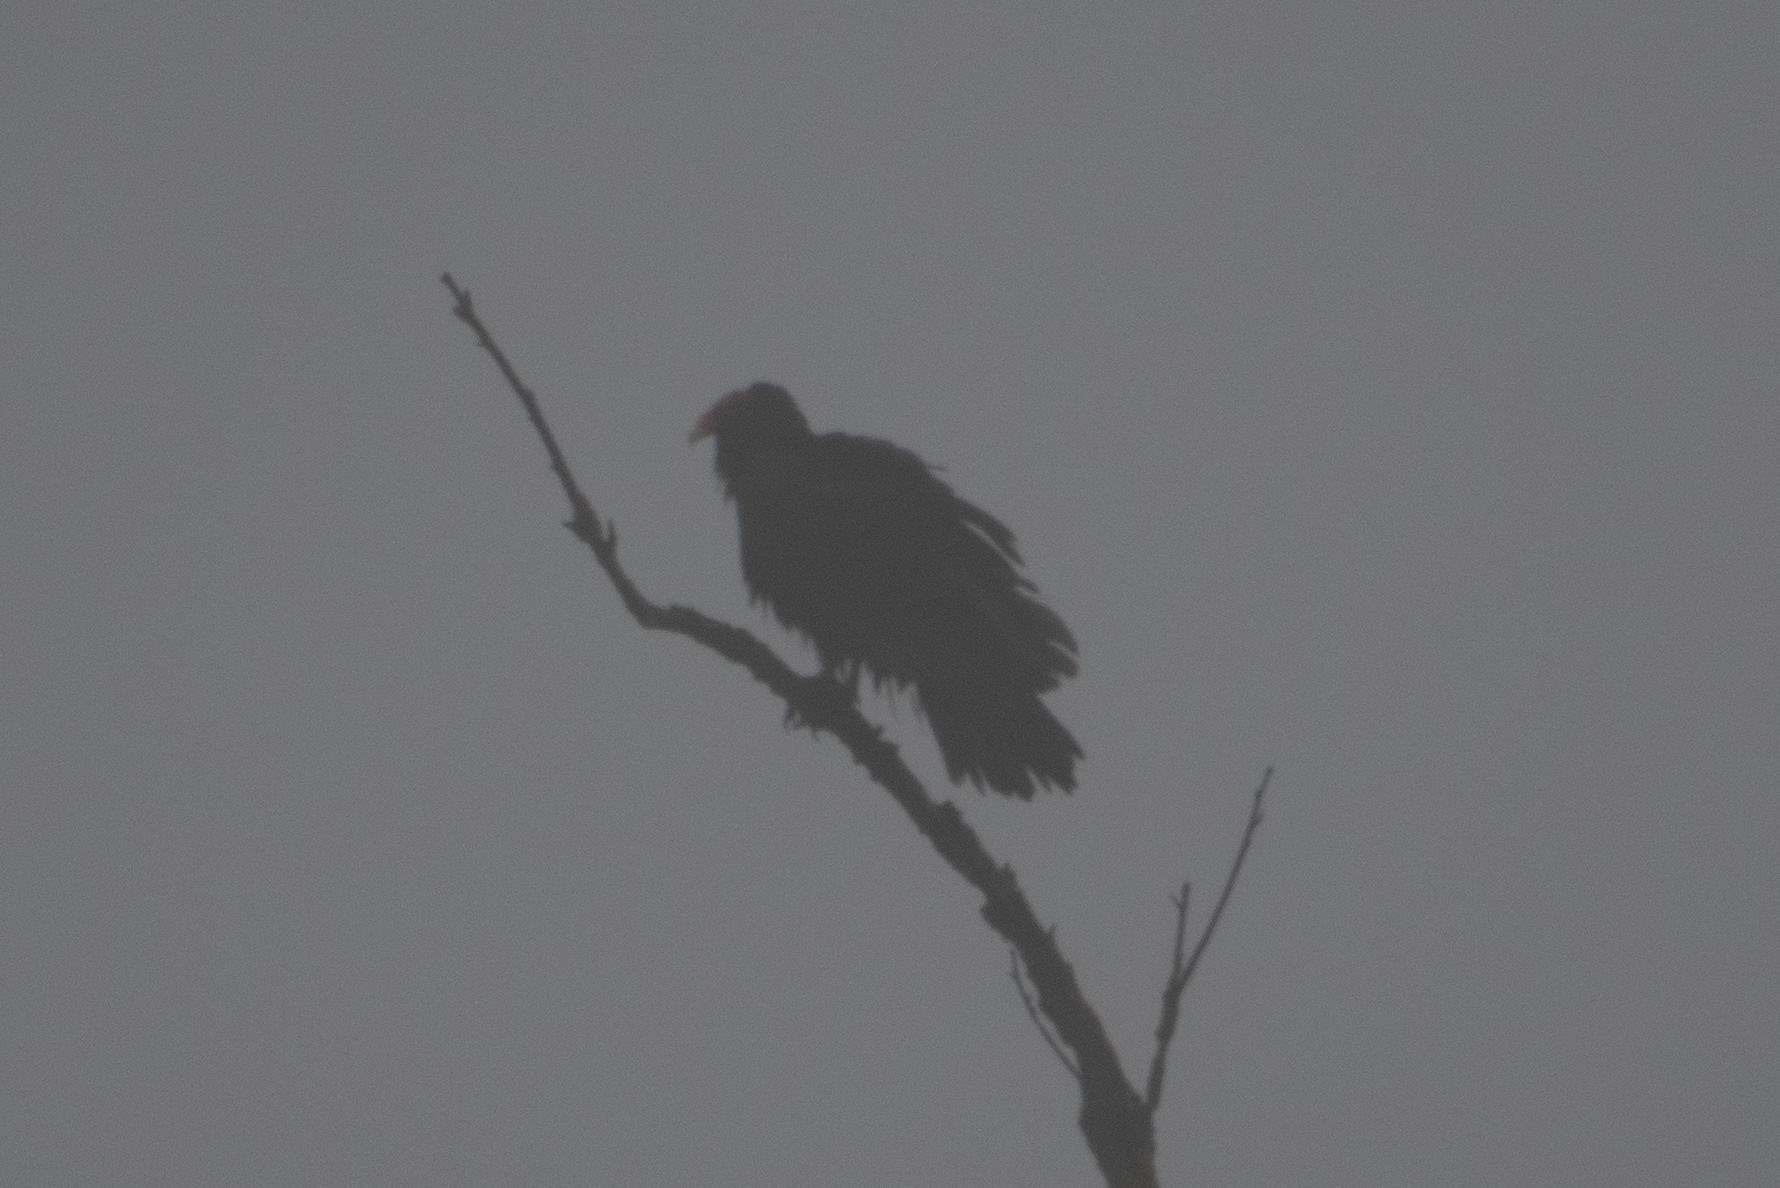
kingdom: Animalia
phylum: Chordata
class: Aves
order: Accipitriformes
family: Cathartidae
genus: Cathartes
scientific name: Cathartes aura
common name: Turkey vulture
